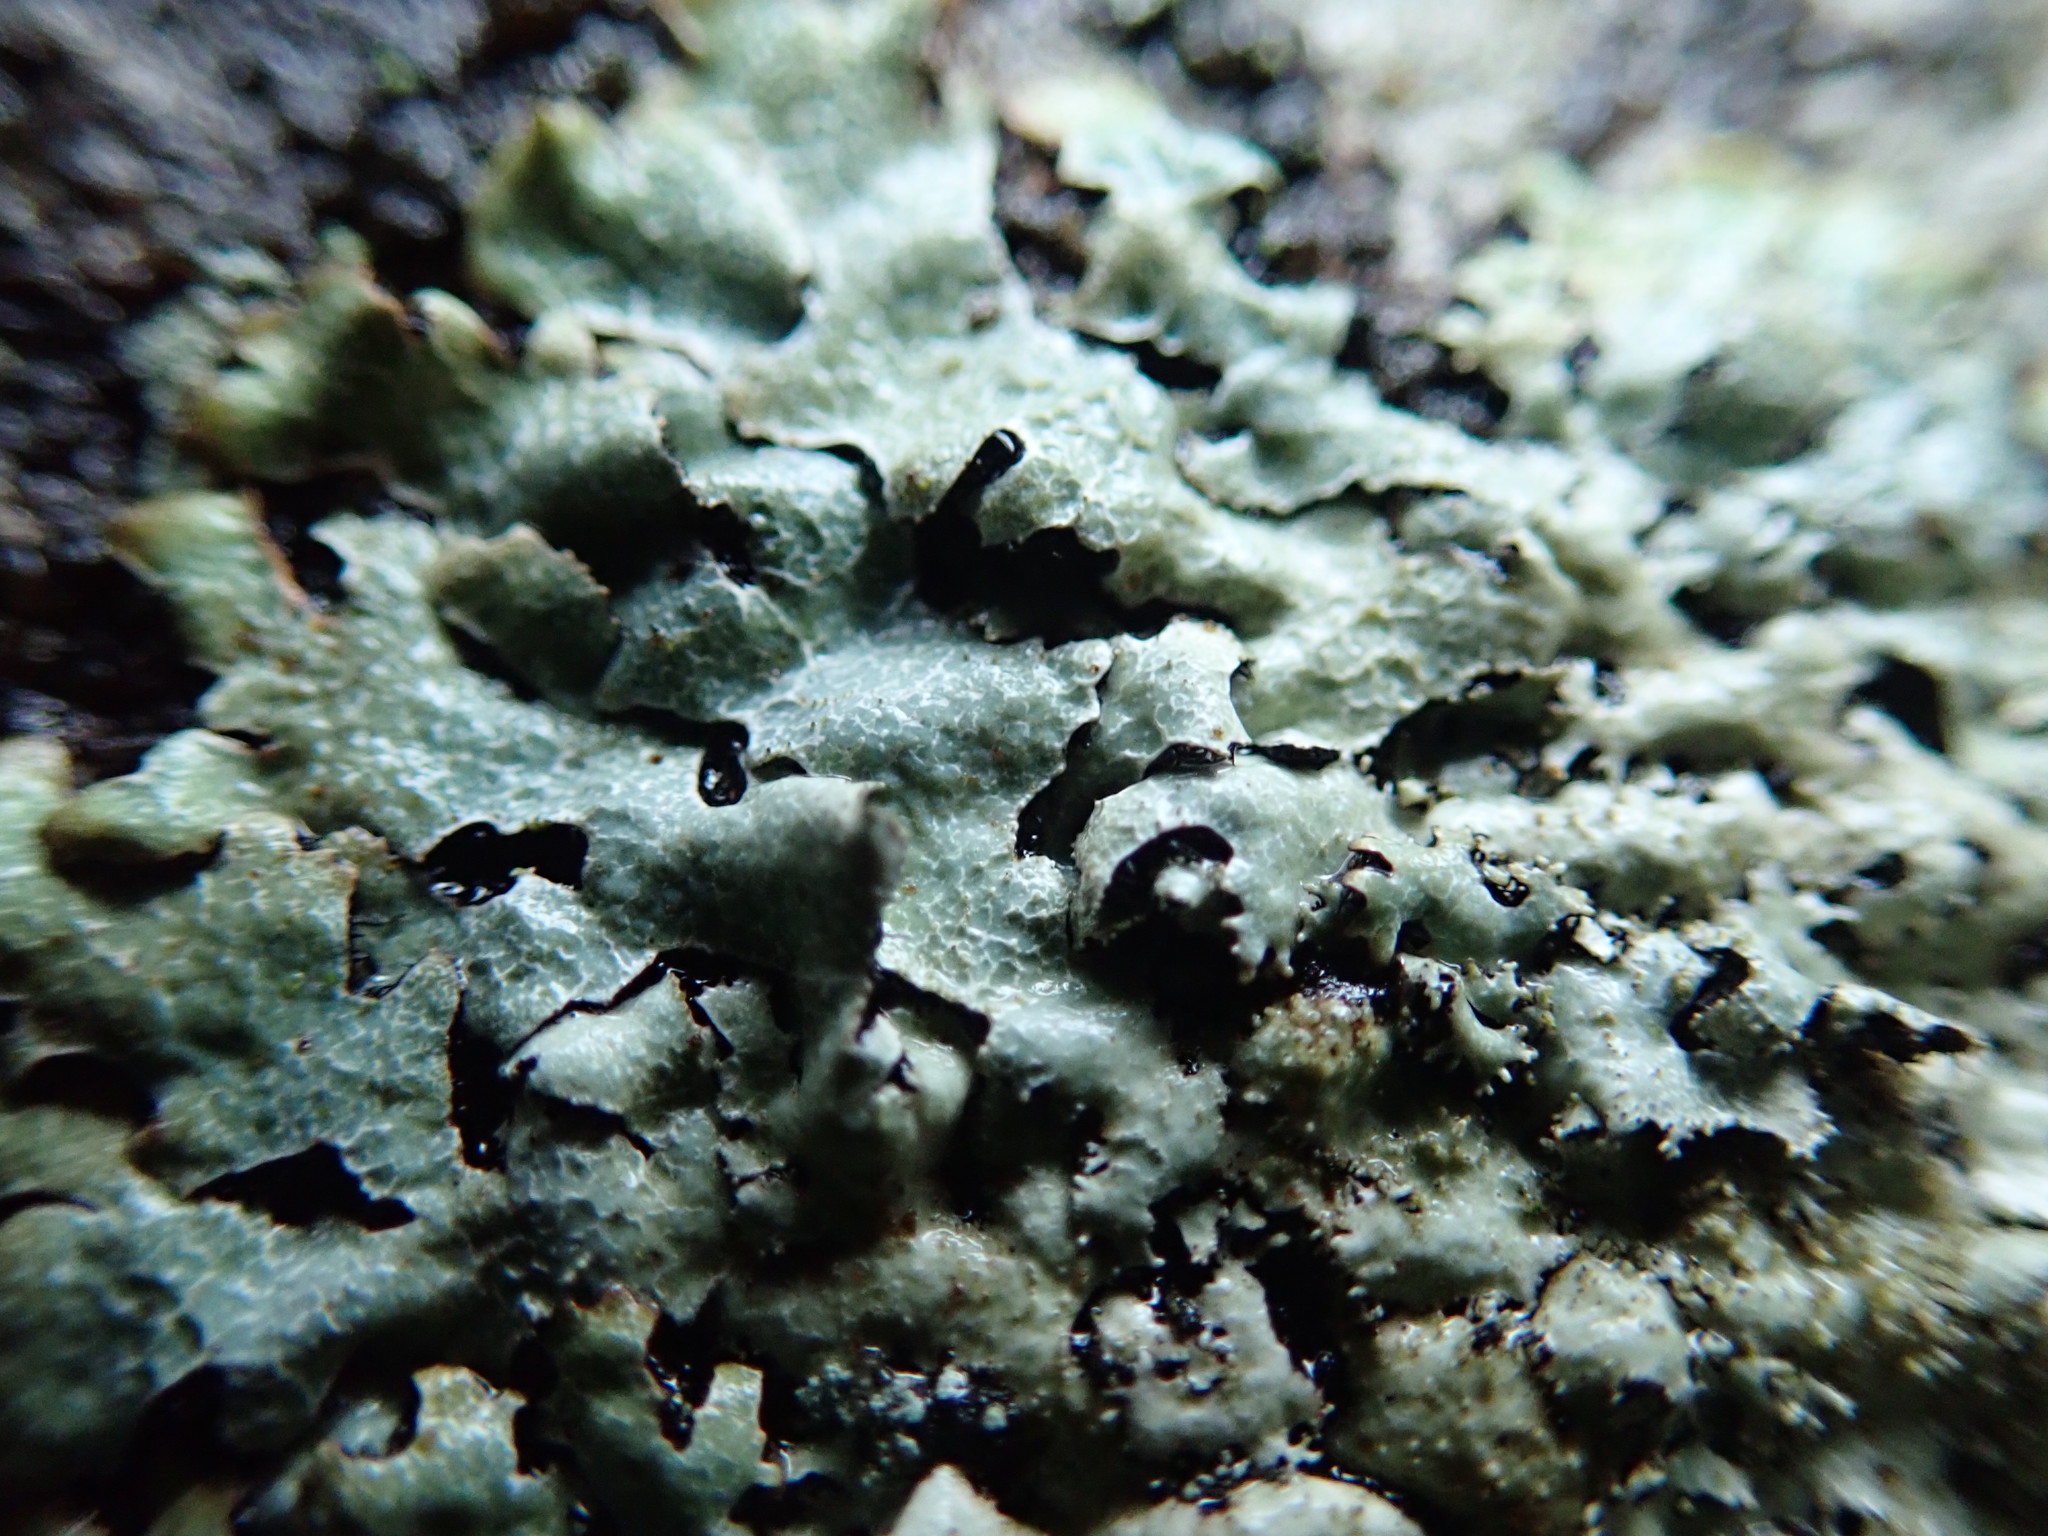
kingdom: Fungi
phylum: Ascomycota
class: Lecanoromycetes
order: Lecanorales
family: Parmeliaceae
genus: Parmelia
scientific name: Parmelia saxatilis
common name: Salted shield lichen
